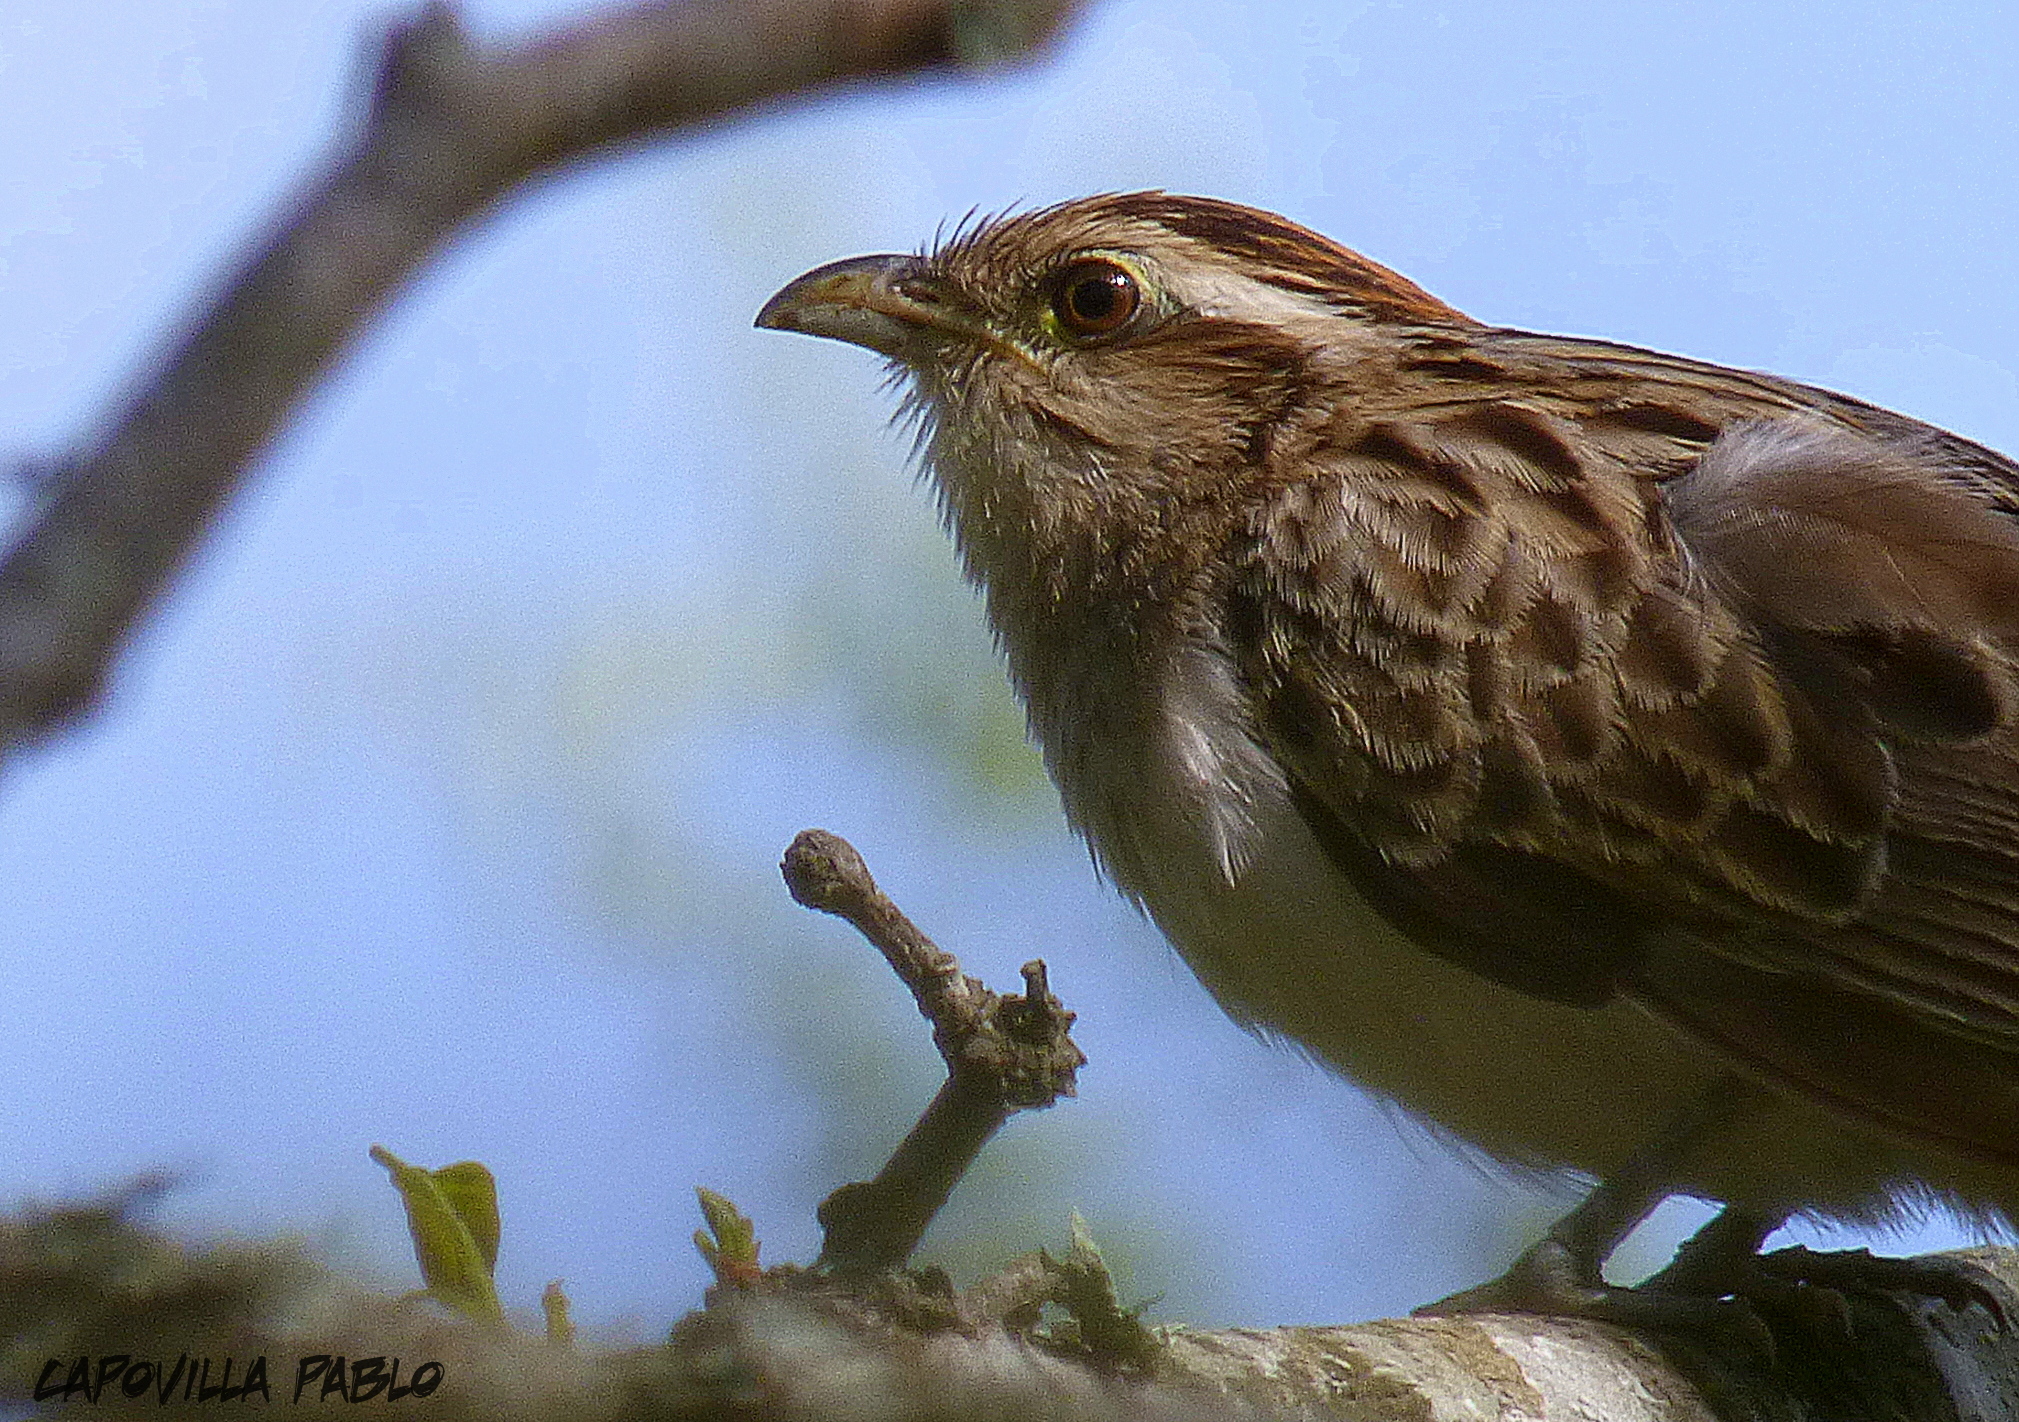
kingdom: Animalia
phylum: Chordata
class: Aves
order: Cuculiformes
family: Cuculidae
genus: Tapera
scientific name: Tapera naevia
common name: Striped cuckoo
